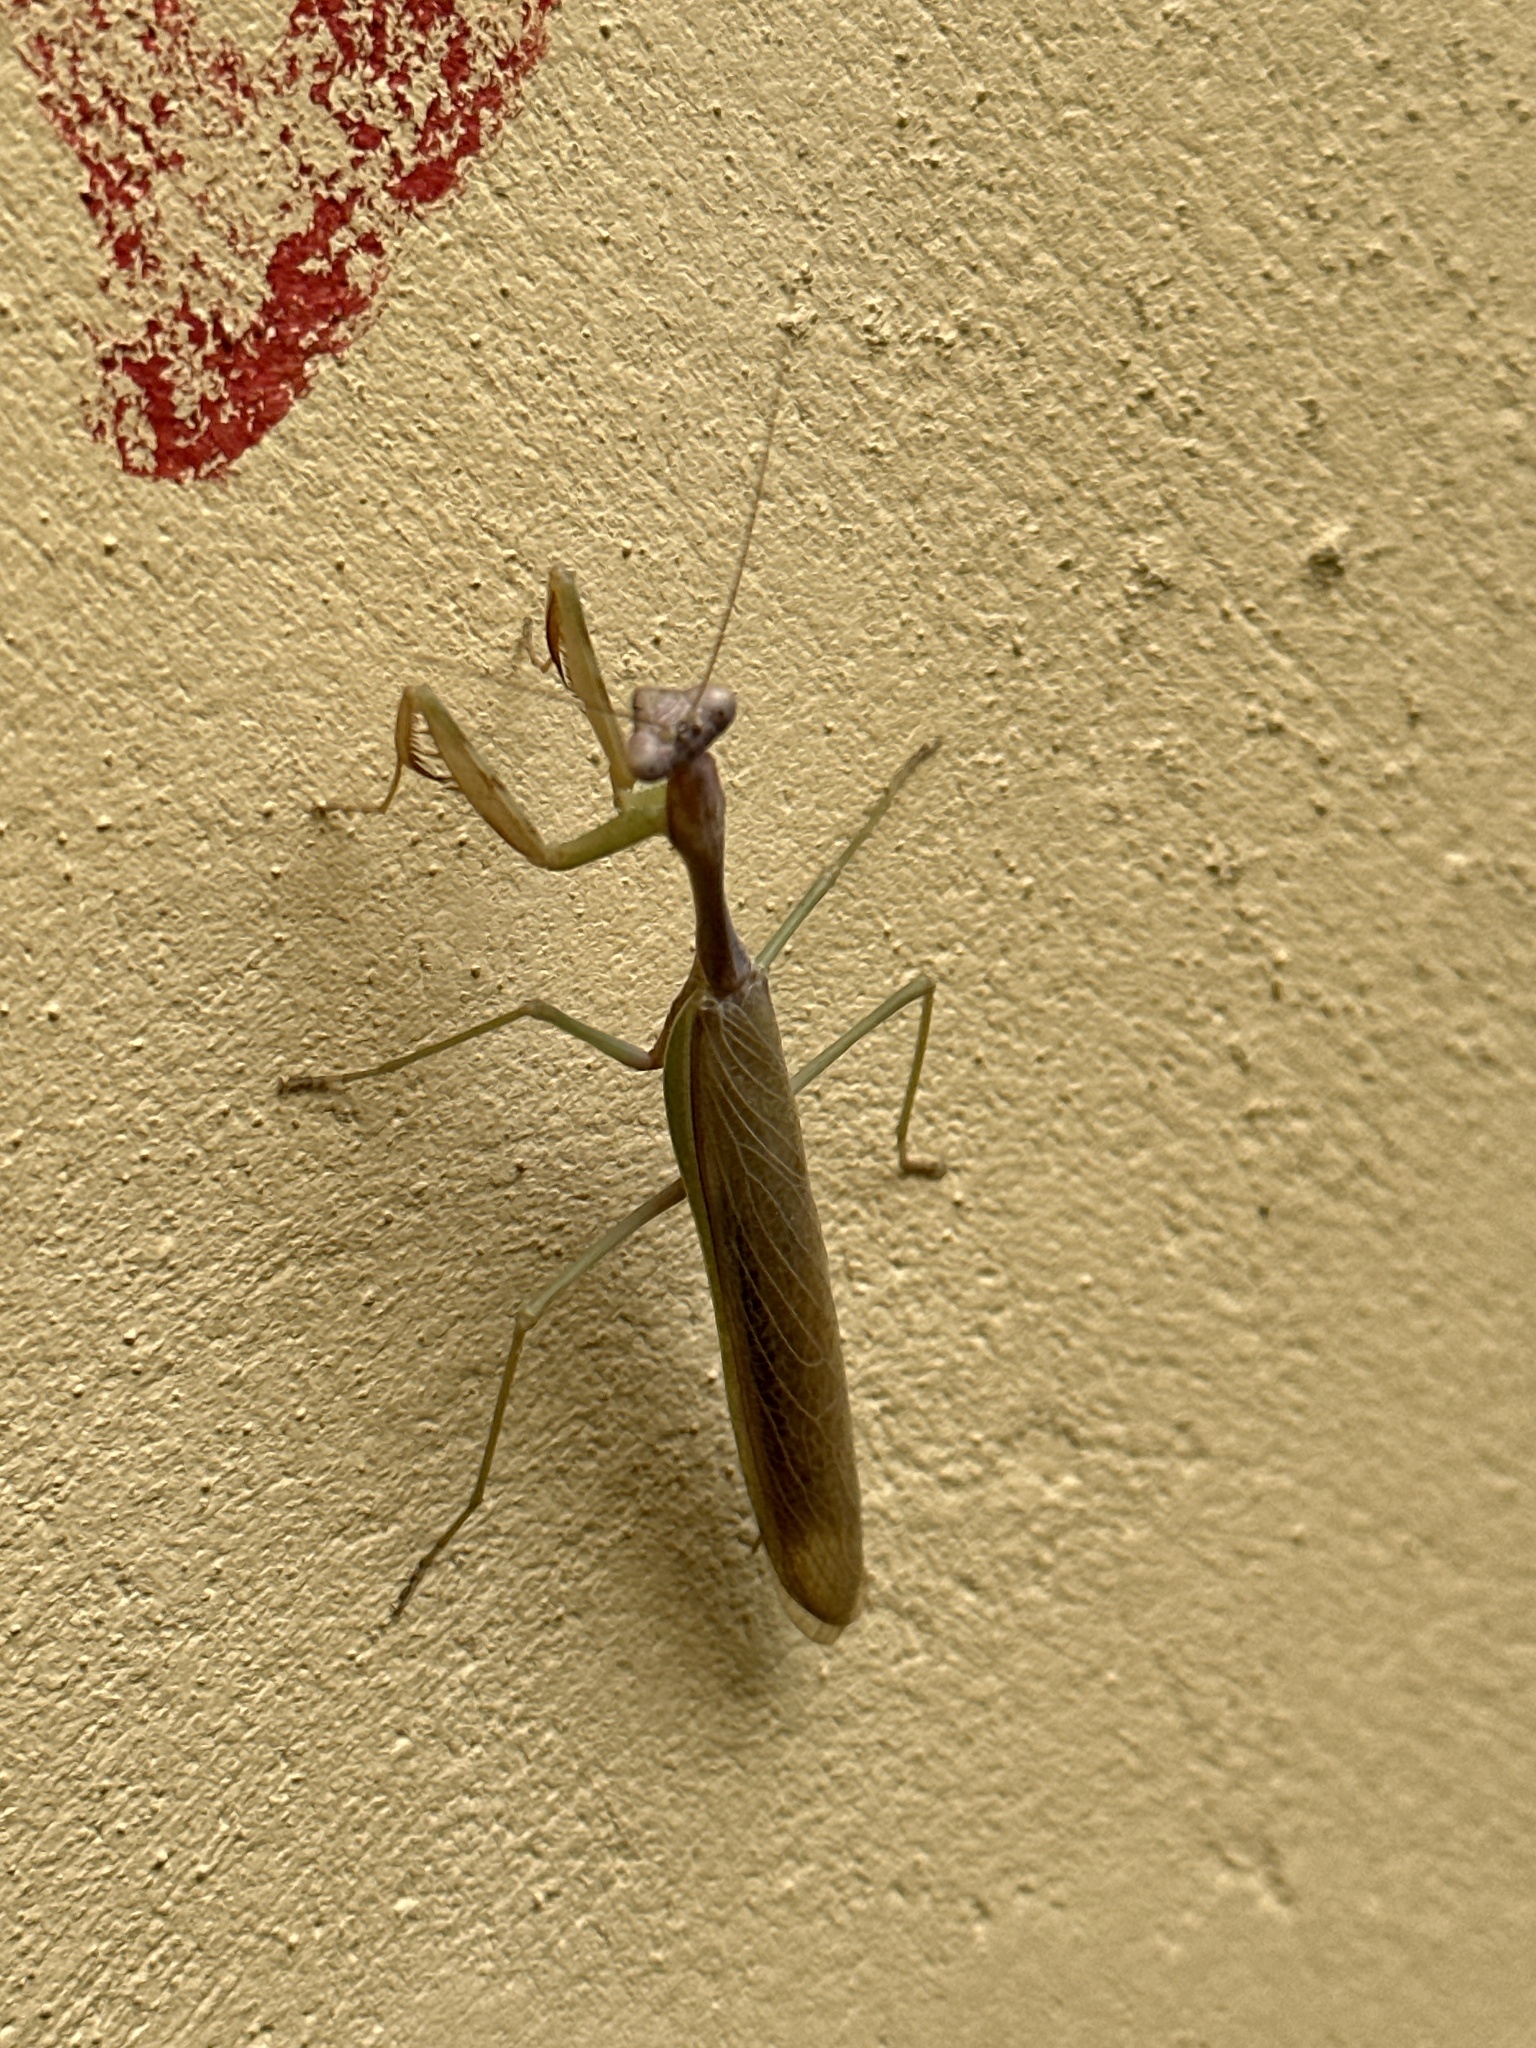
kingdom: Animalia
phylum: Arthropoda
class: Insecta
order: Mantodea
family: Mantidae
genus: Stagmomantis
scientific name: Stagmomantis montana
